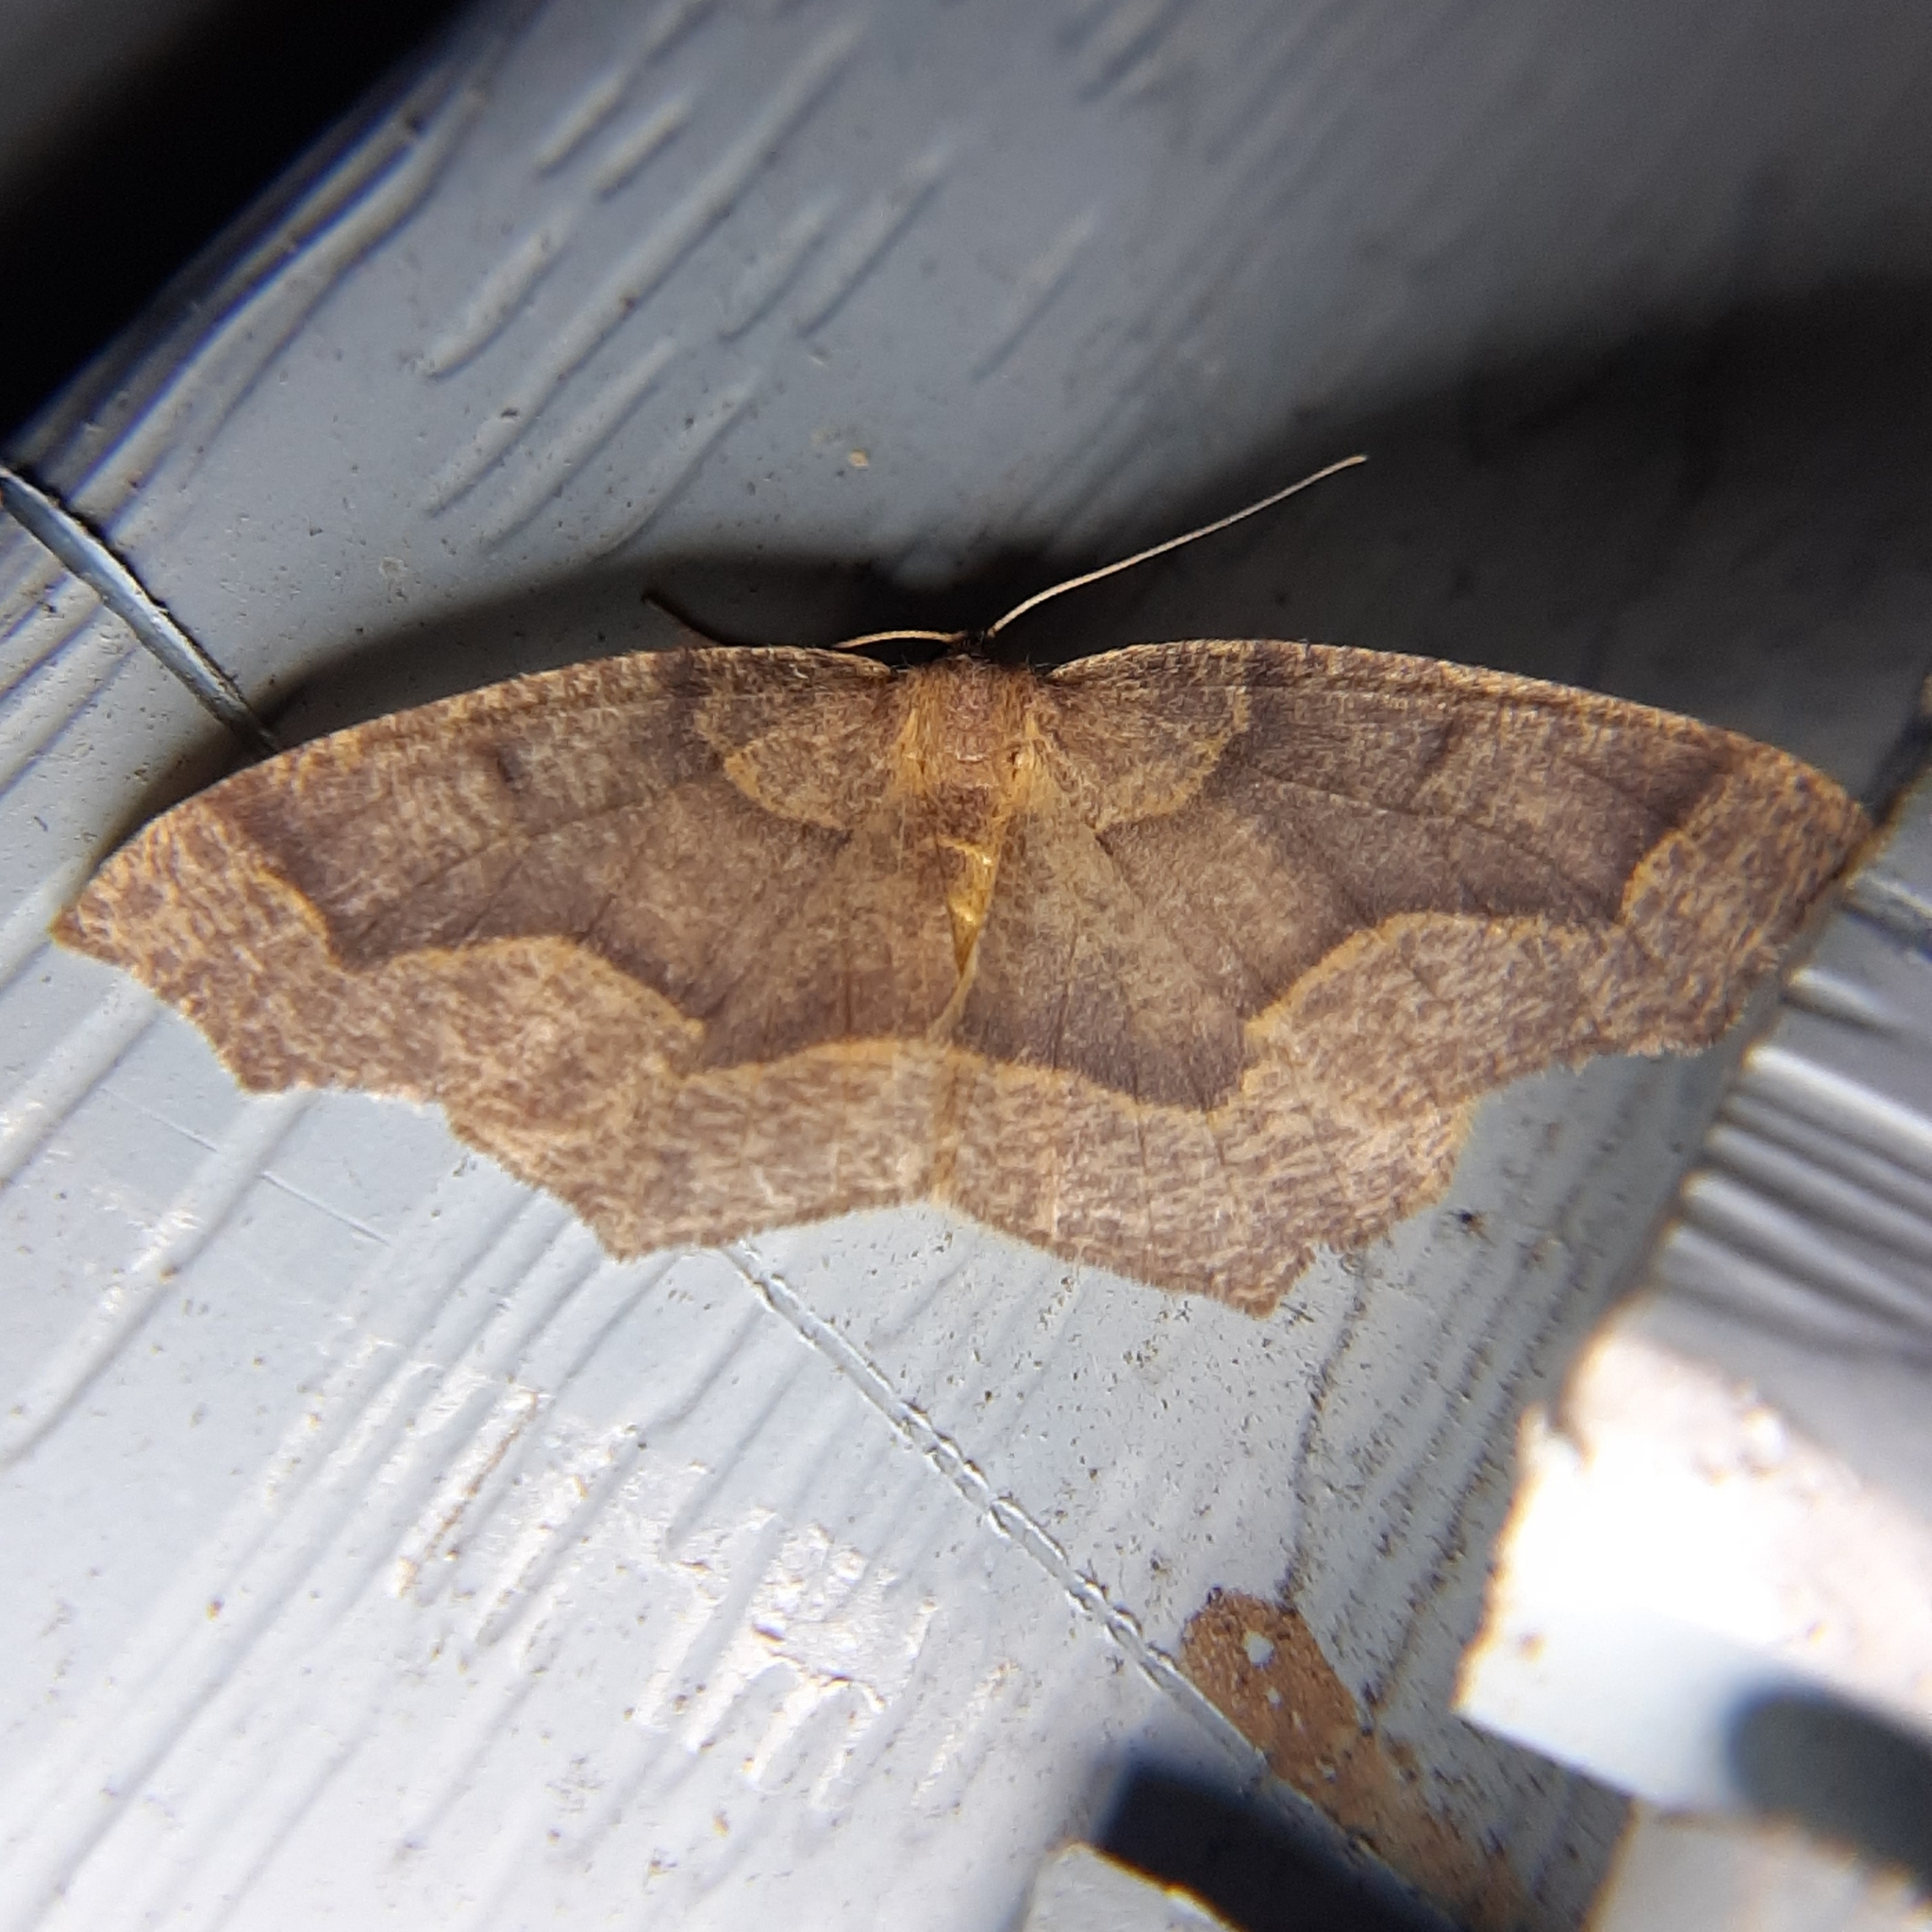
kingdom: Animalia
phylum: Arthropoda
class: Insecta
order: Lepidoptera
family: Geometridae
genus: Lambdina
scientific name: Lambdina fiscellaria
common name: Hemlock looper
